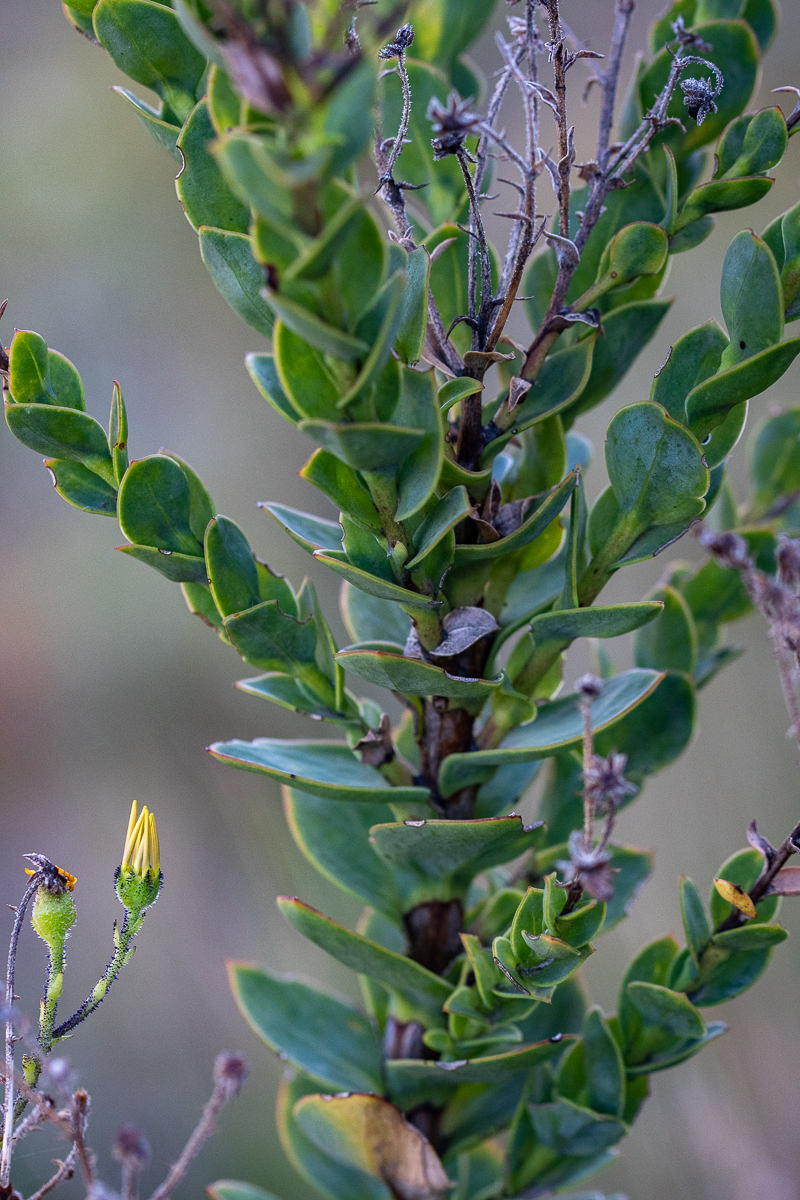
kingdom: Plantae
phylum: Tracheophyta
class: Magnoliopsida
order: Asterales
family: Asteraceae
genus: Osteospermum
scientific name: Osteospermum rotundifolium
